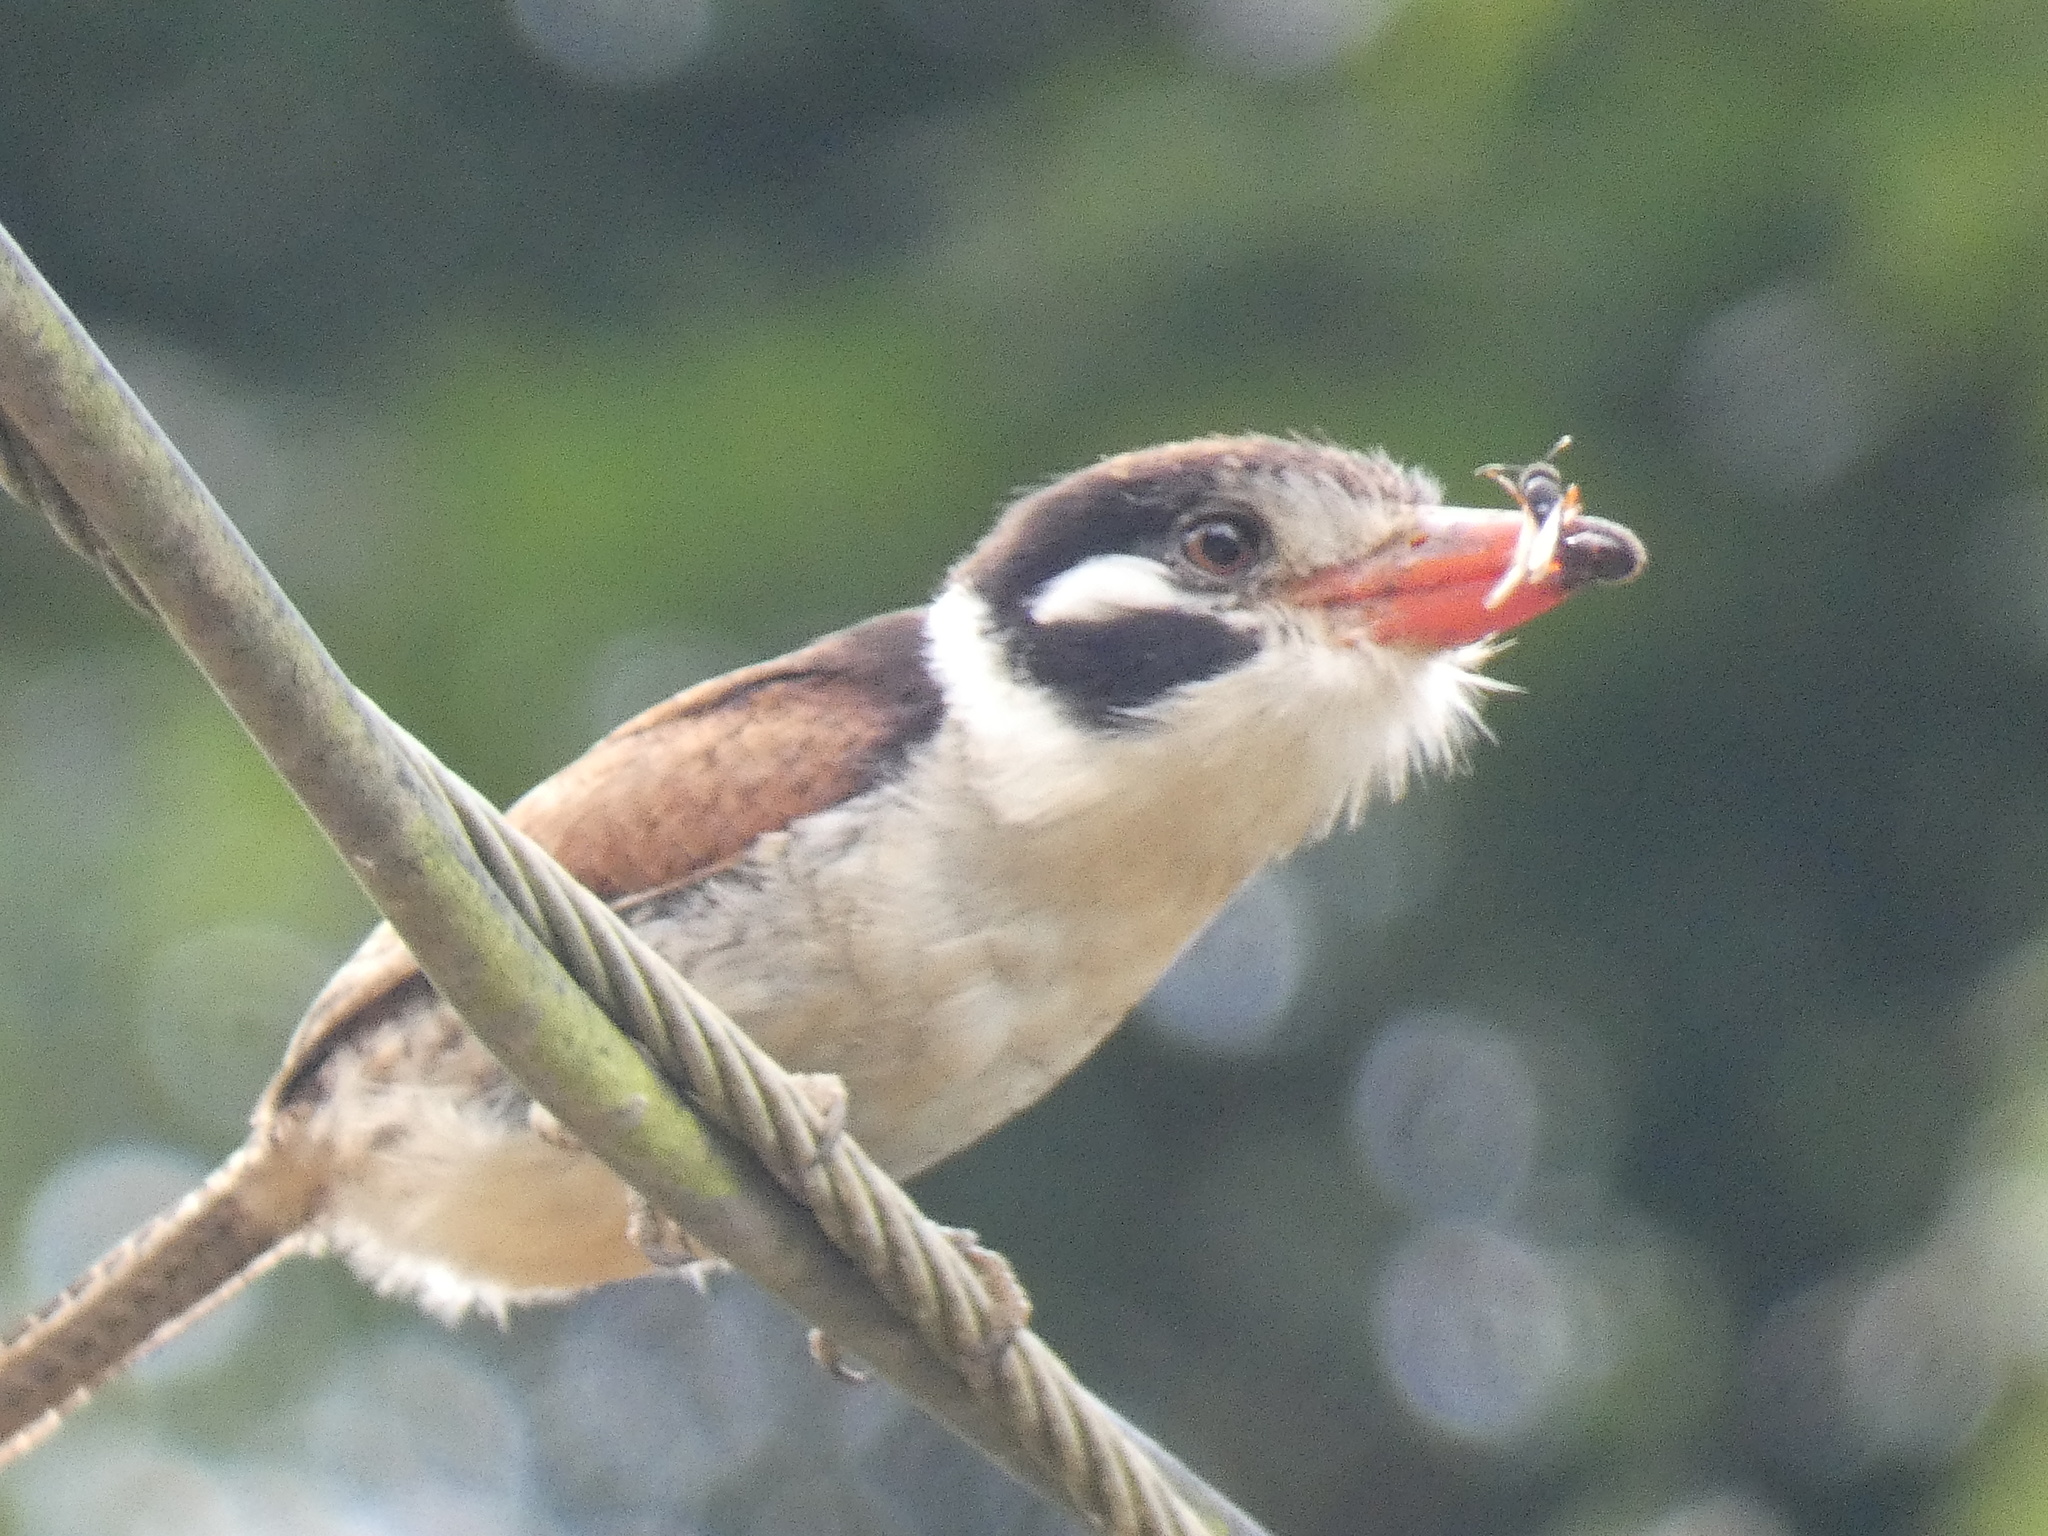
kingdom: Animalia
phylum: Chordata
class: Aves
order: Piciformes
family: Bucconidae
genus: Nystalus
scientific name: Nystalus chacuru
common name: White-eared puffbird
